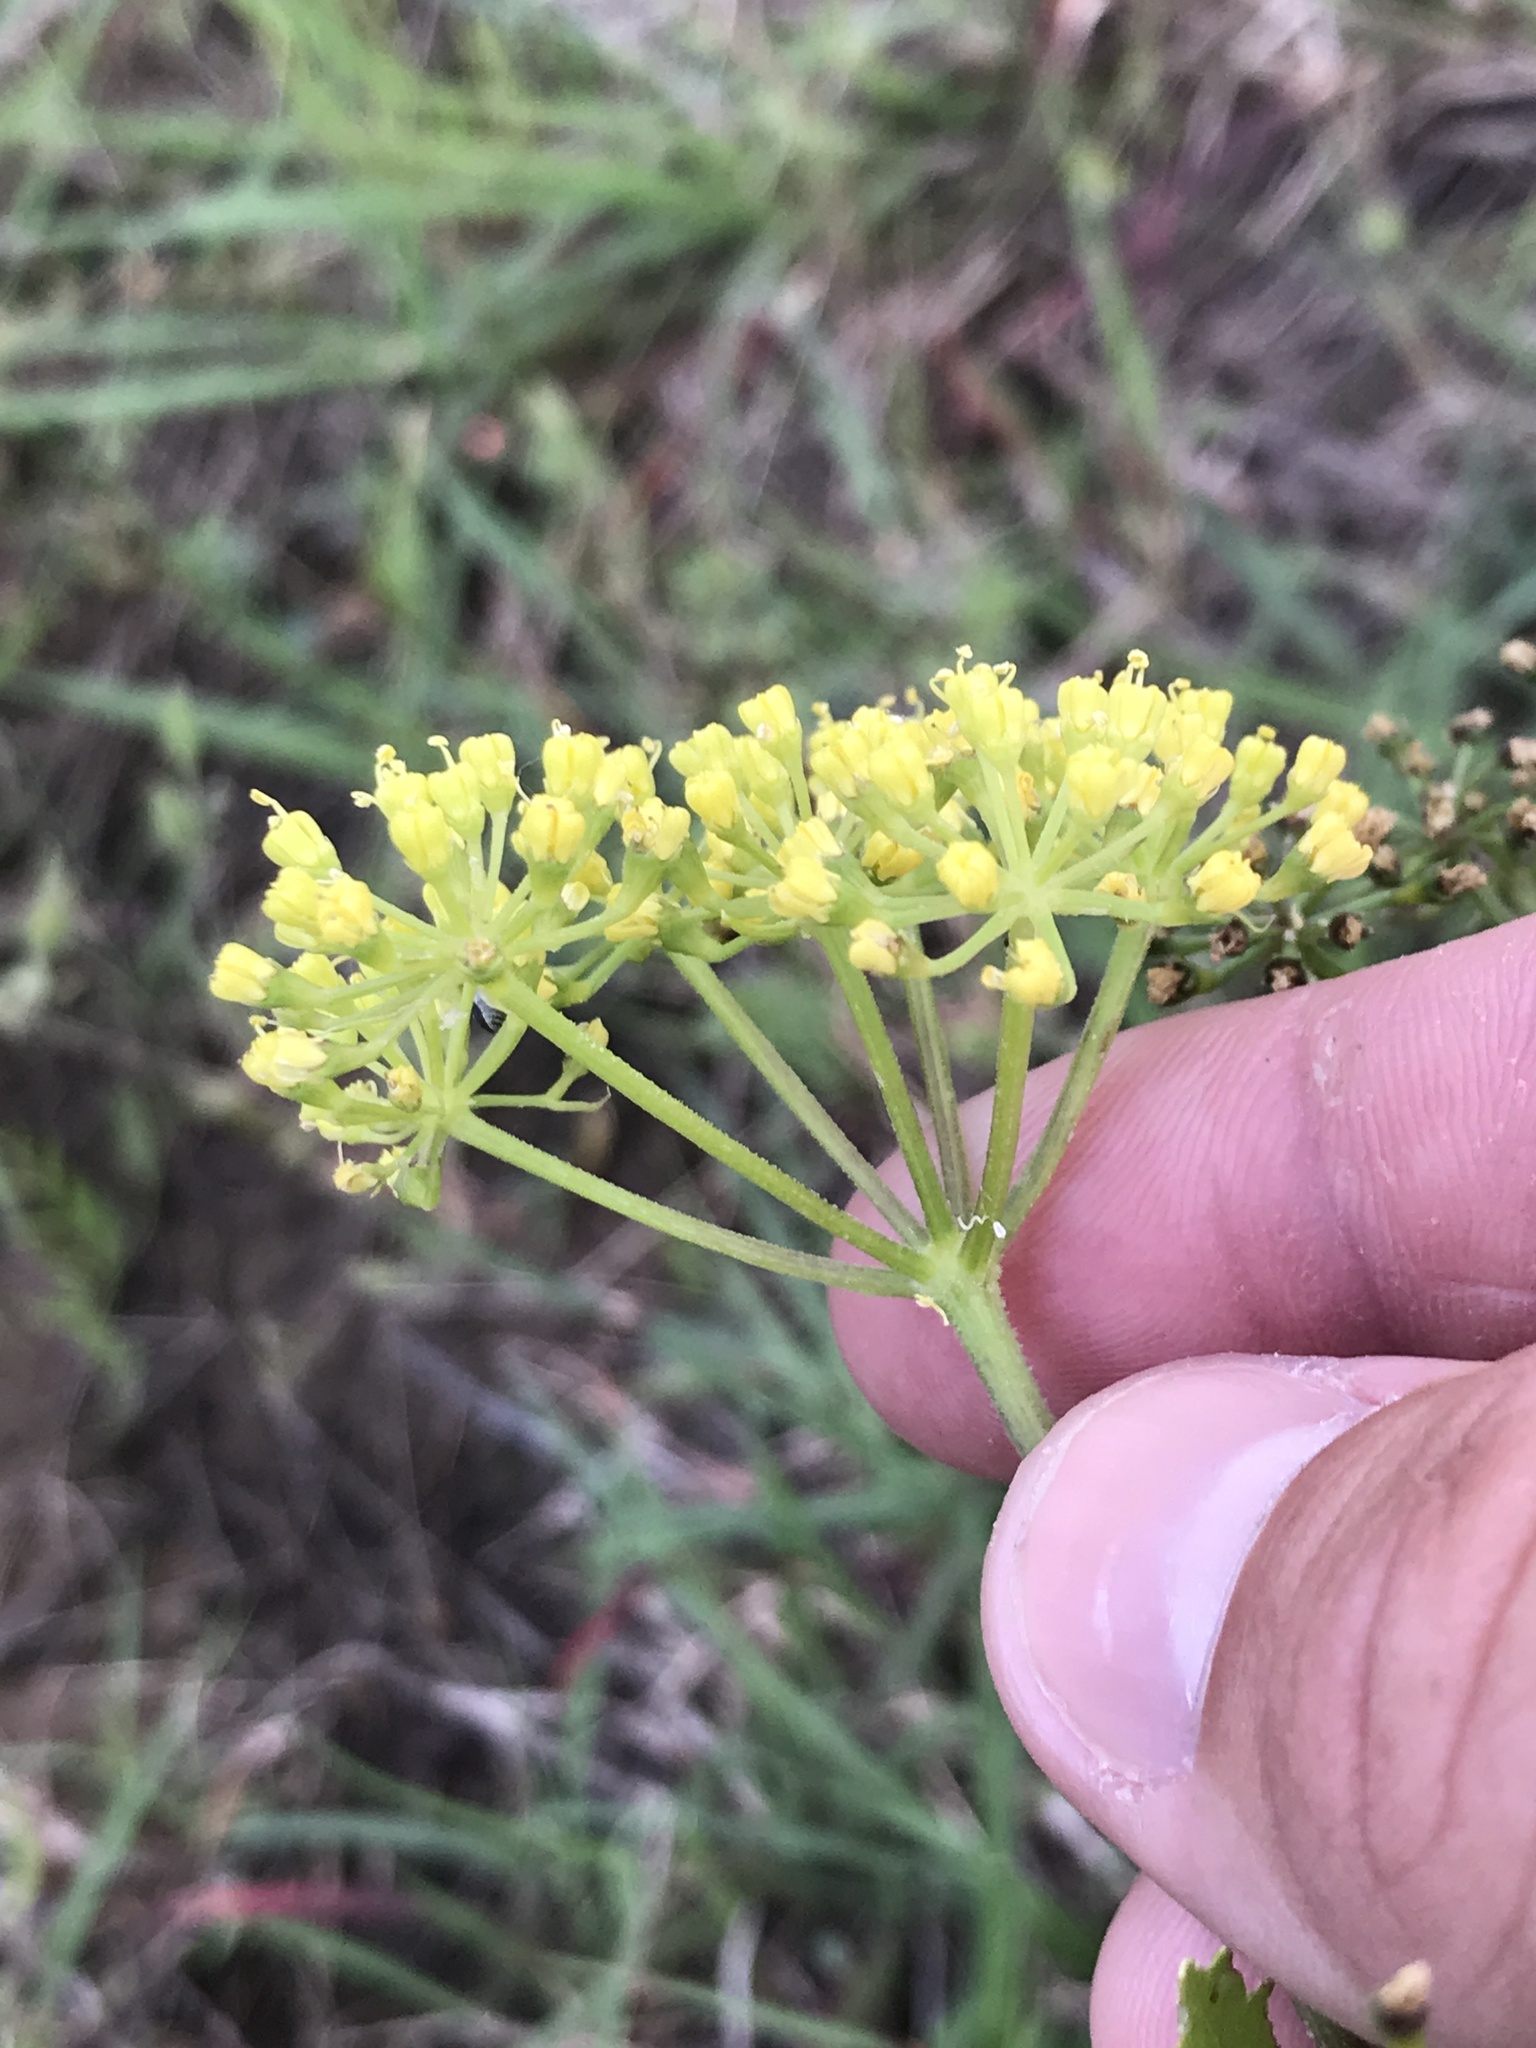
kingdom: Plantae
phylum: Tracheophyta
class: Magnoliopsida
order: Apiales
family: Apiaceae
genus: Polytaenia
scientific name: Polytaenia texana
